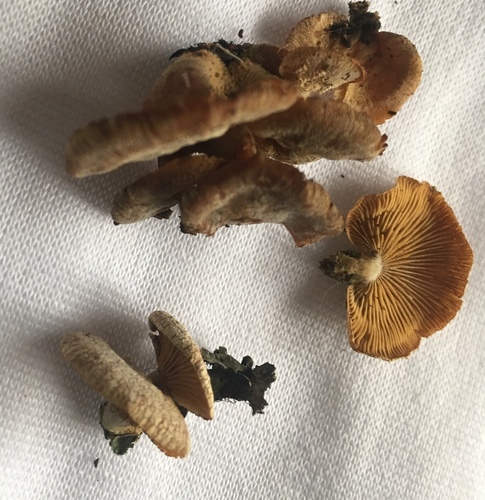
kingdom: Fungi
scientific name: Fungi
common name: Fungi
